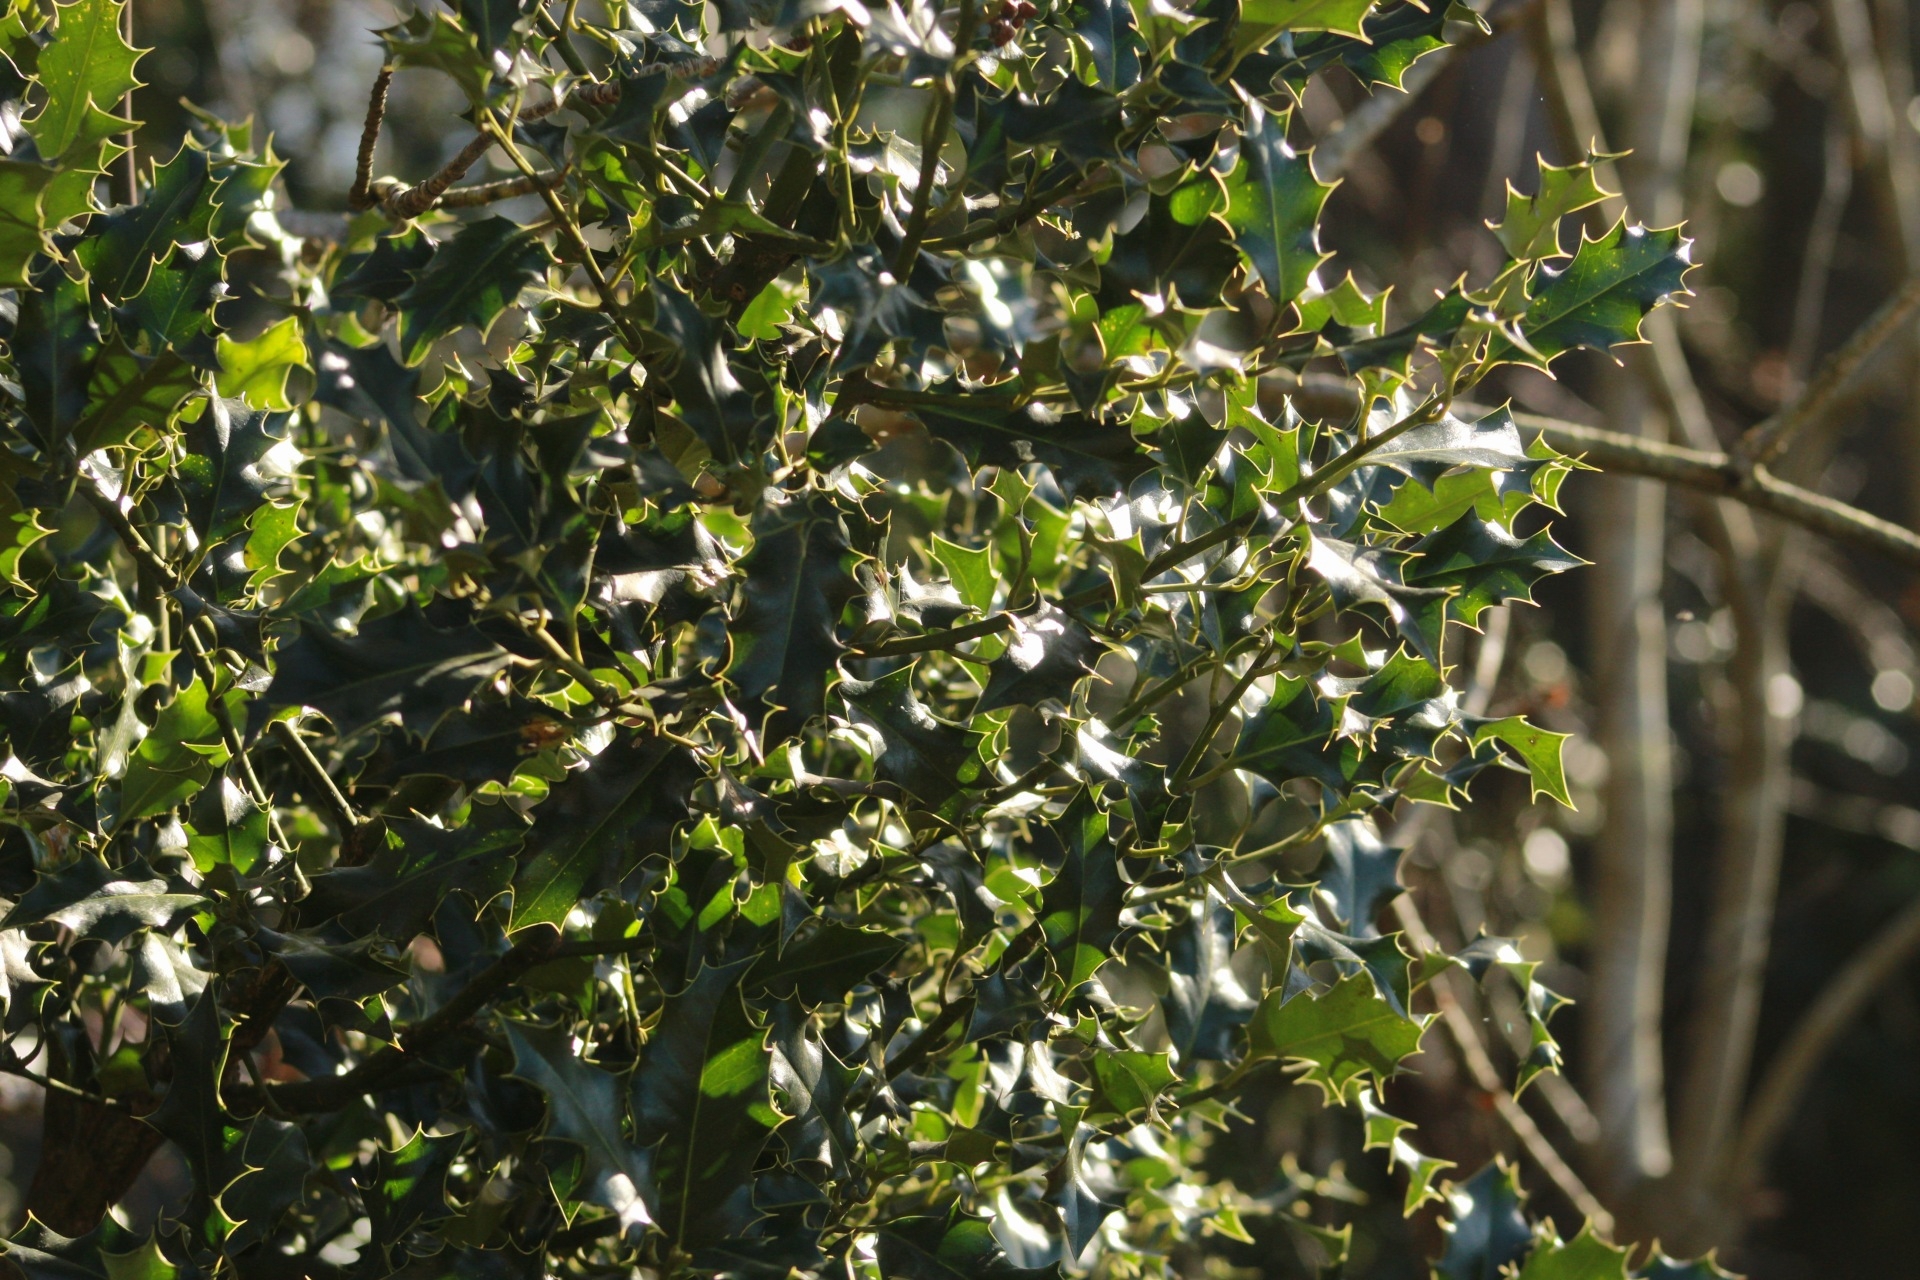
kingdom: Plantae
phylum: Tracheophyta
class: Magnoliopsida
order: Aquifoliales
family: Aquifoliaceae
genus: Ilex
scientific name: Ilex aquifolium
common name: English holly
